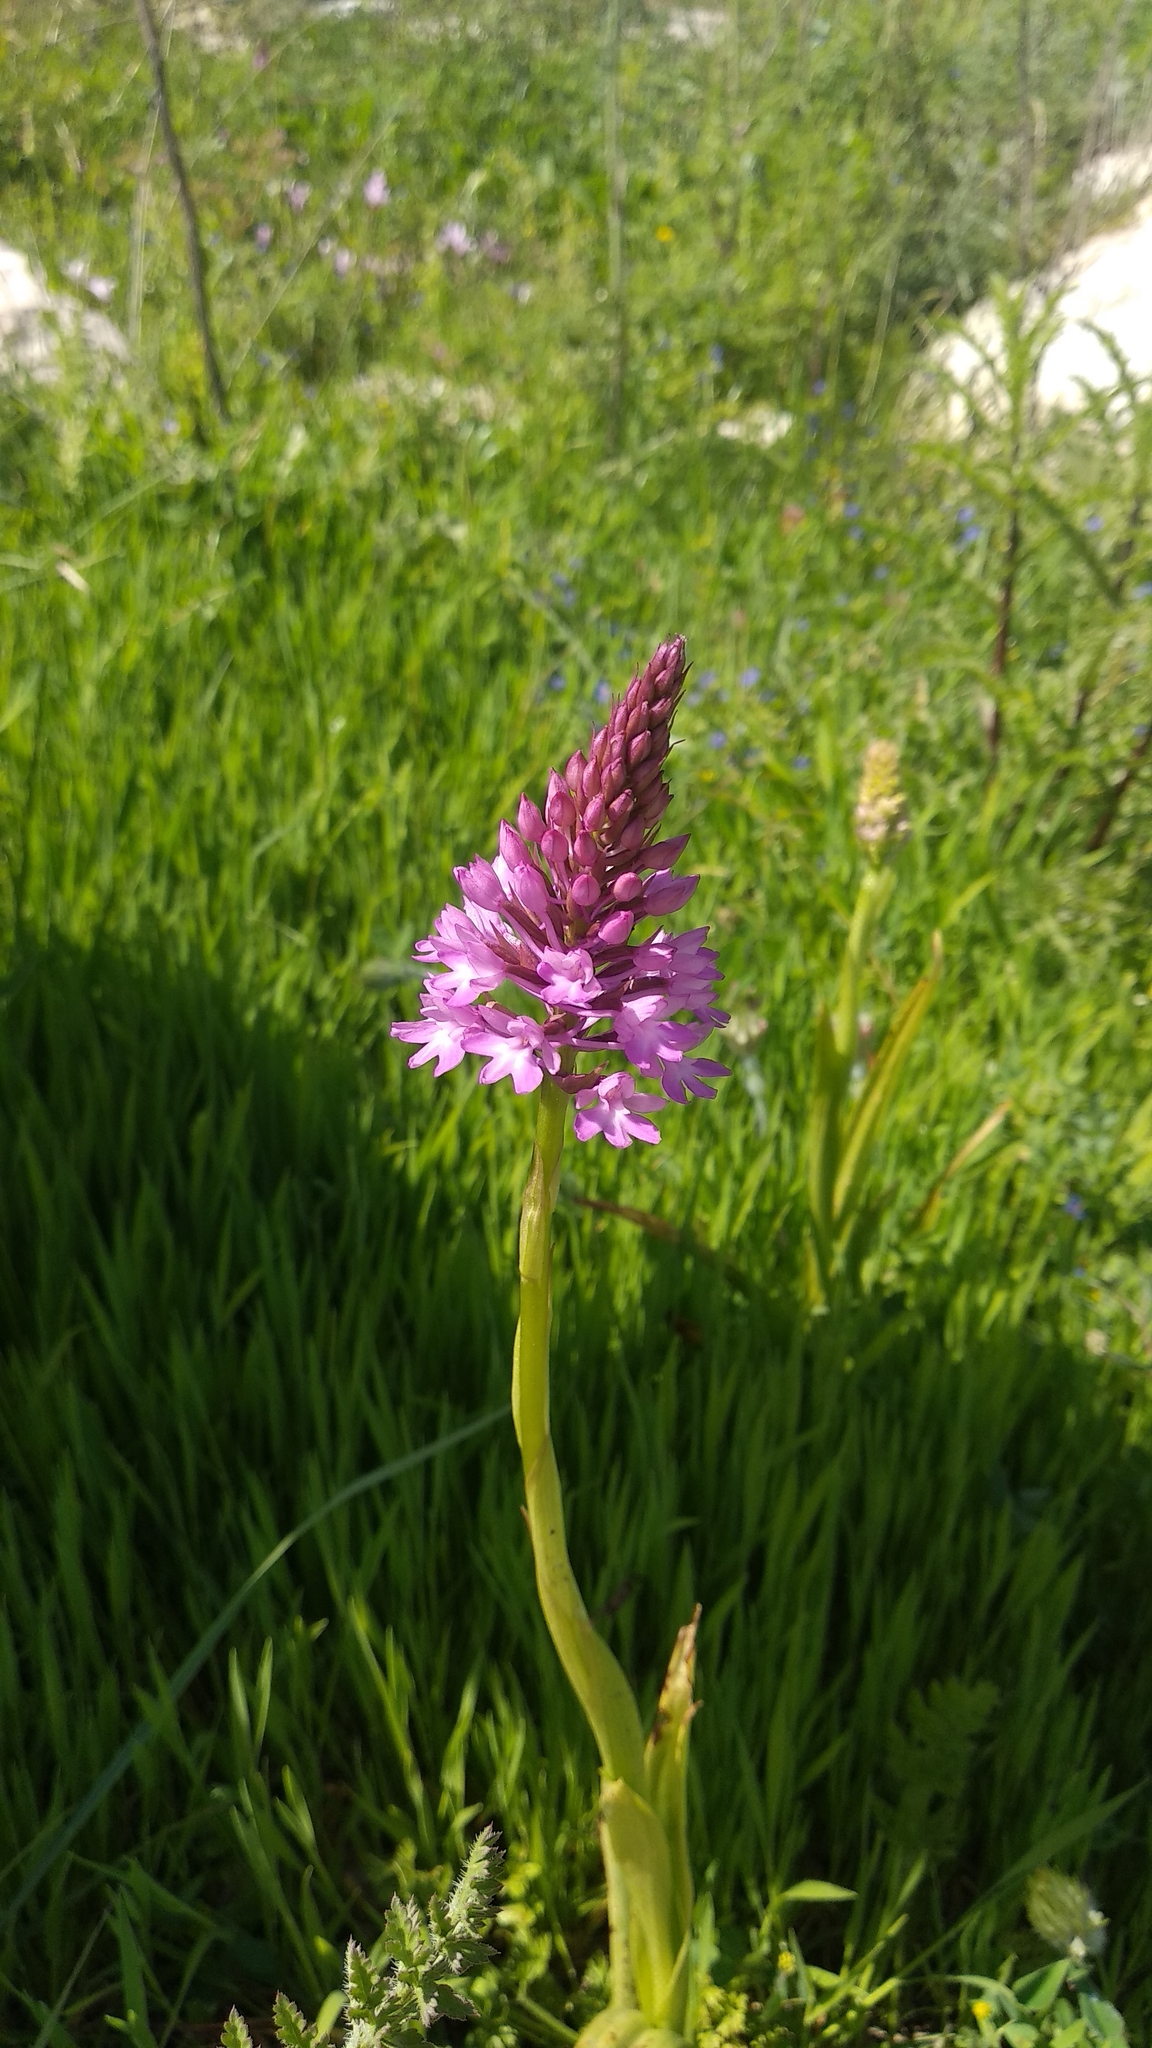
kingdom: Plantae
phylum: Tracheophyta
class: Liliopsida
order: Asparagales
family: Orchidaceae
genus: Anacamptis
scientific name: Anacamptis pyramidalis
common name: Pyramidal orchid
